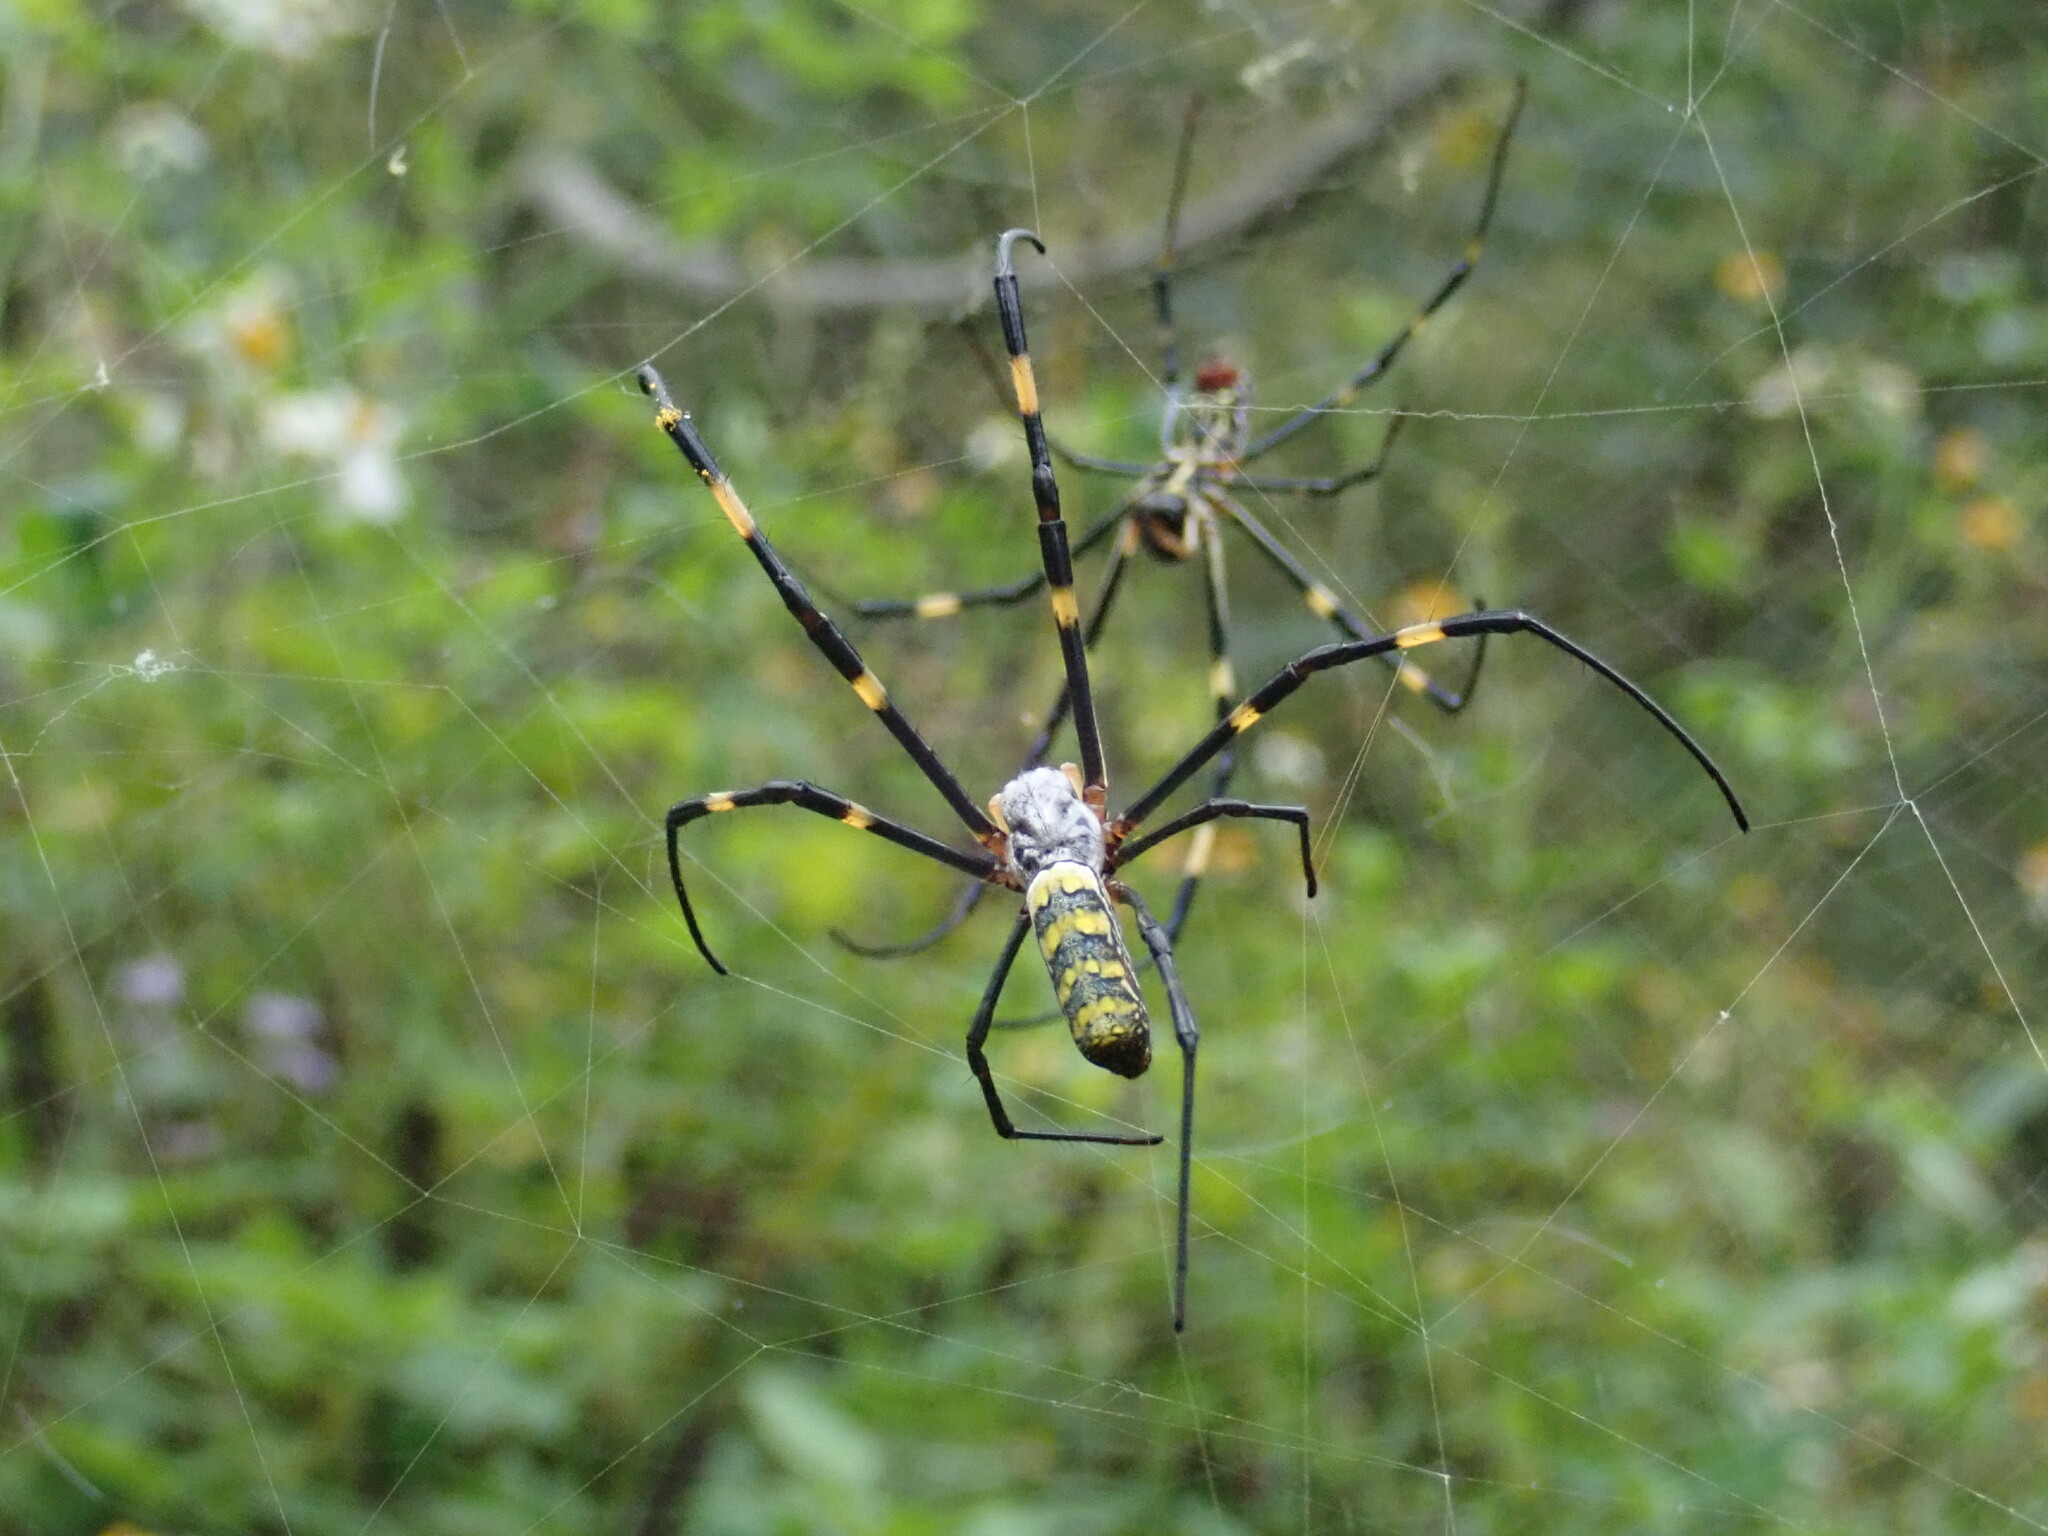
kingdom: Animalia
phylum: Arthropoda
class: Arachnida
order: Araneae
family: Araneidae
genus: Trichonephila
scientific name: Trichonephila clavata
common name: Jorō spider
